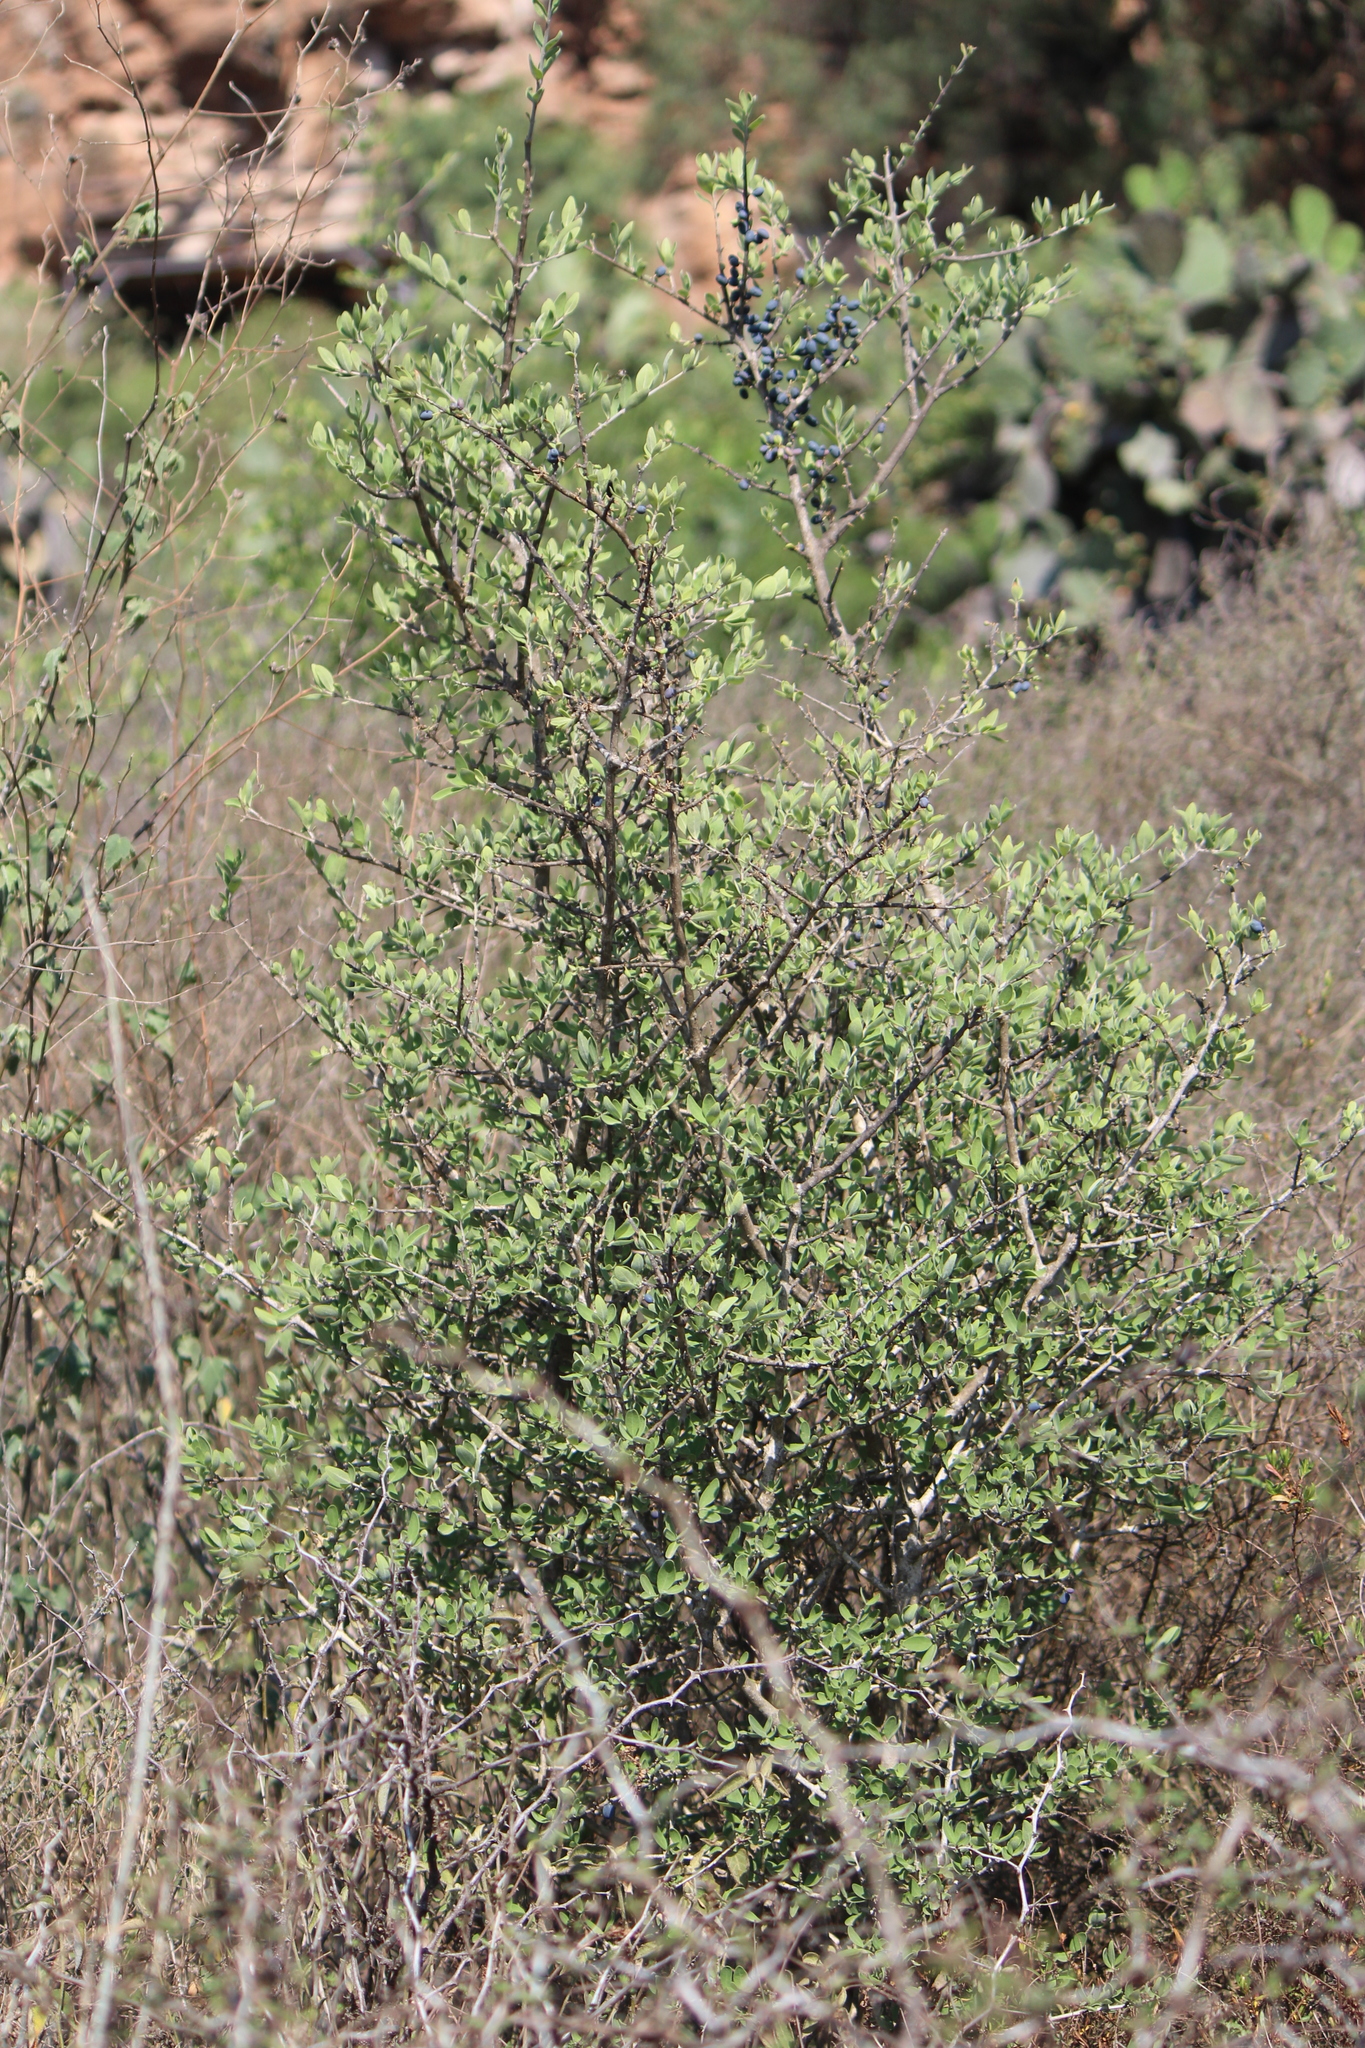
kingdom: Plantae
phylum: Tracheophyta
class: Magnoliopsida
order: Lamiales
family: Oleaceae
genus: Forestiera
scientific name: Forestiera phillyreoides
